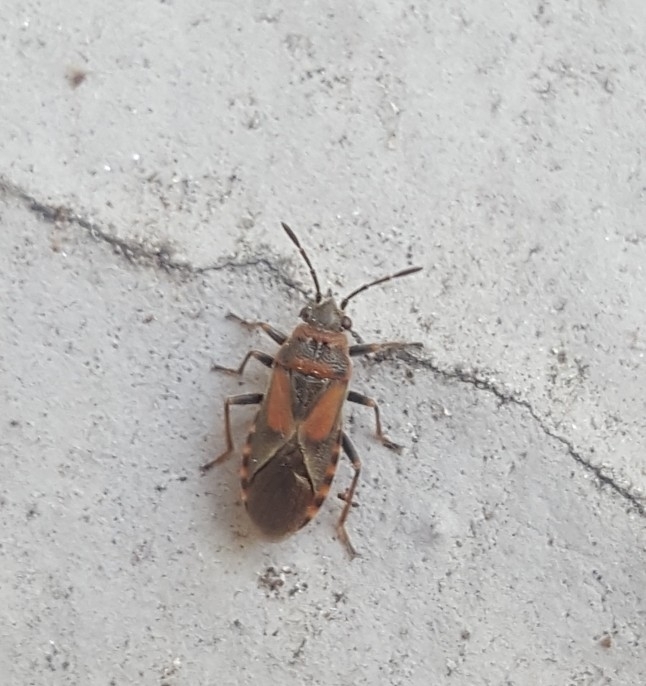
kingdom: Animalia
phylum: Arthropoda
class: Insecta
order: Hemiptera
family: Lygaeidae
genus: Arocatus
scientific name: Arocatus melanocephalus
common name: Lygaeid bug
